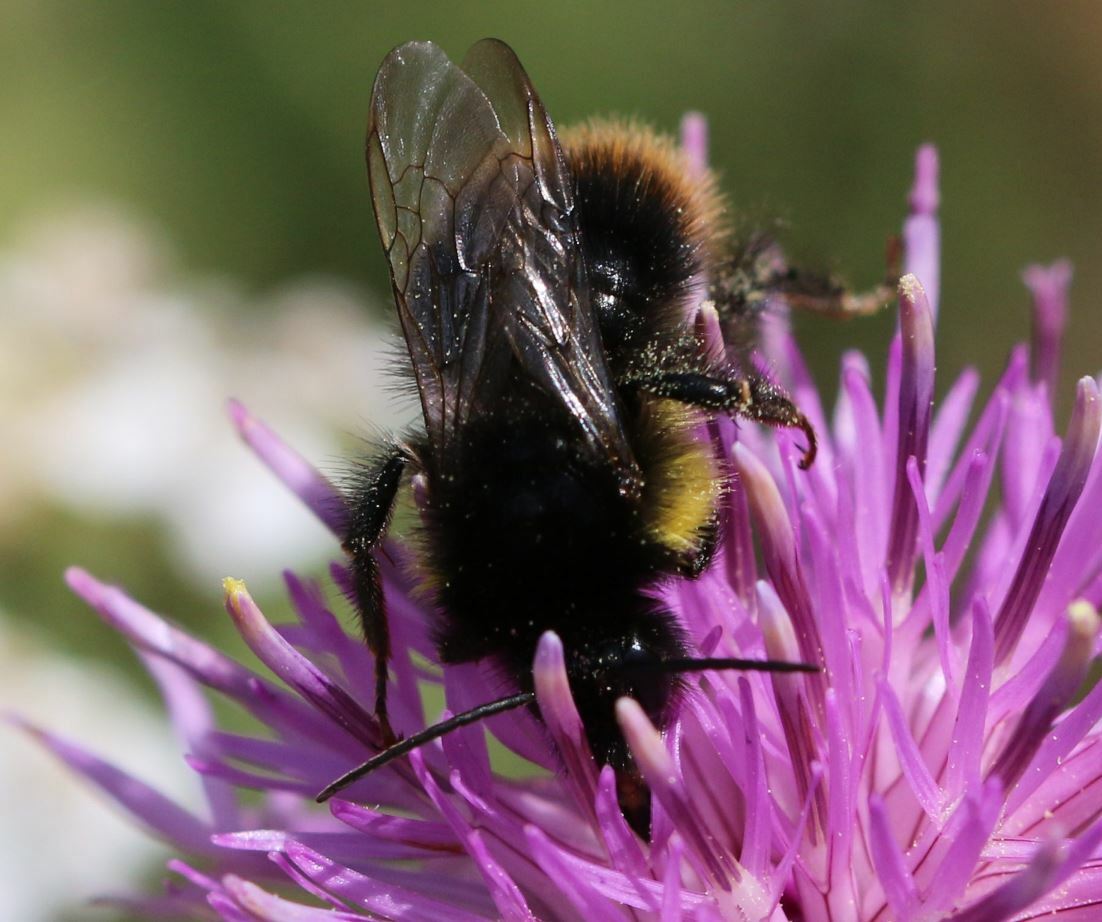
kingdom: Animalia
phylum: Arthropoda
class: Insecta
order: Hymenoptera
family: Apidae
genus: Bombus
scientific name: Bombus soroeensis
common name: Broken-belted humble-bee
